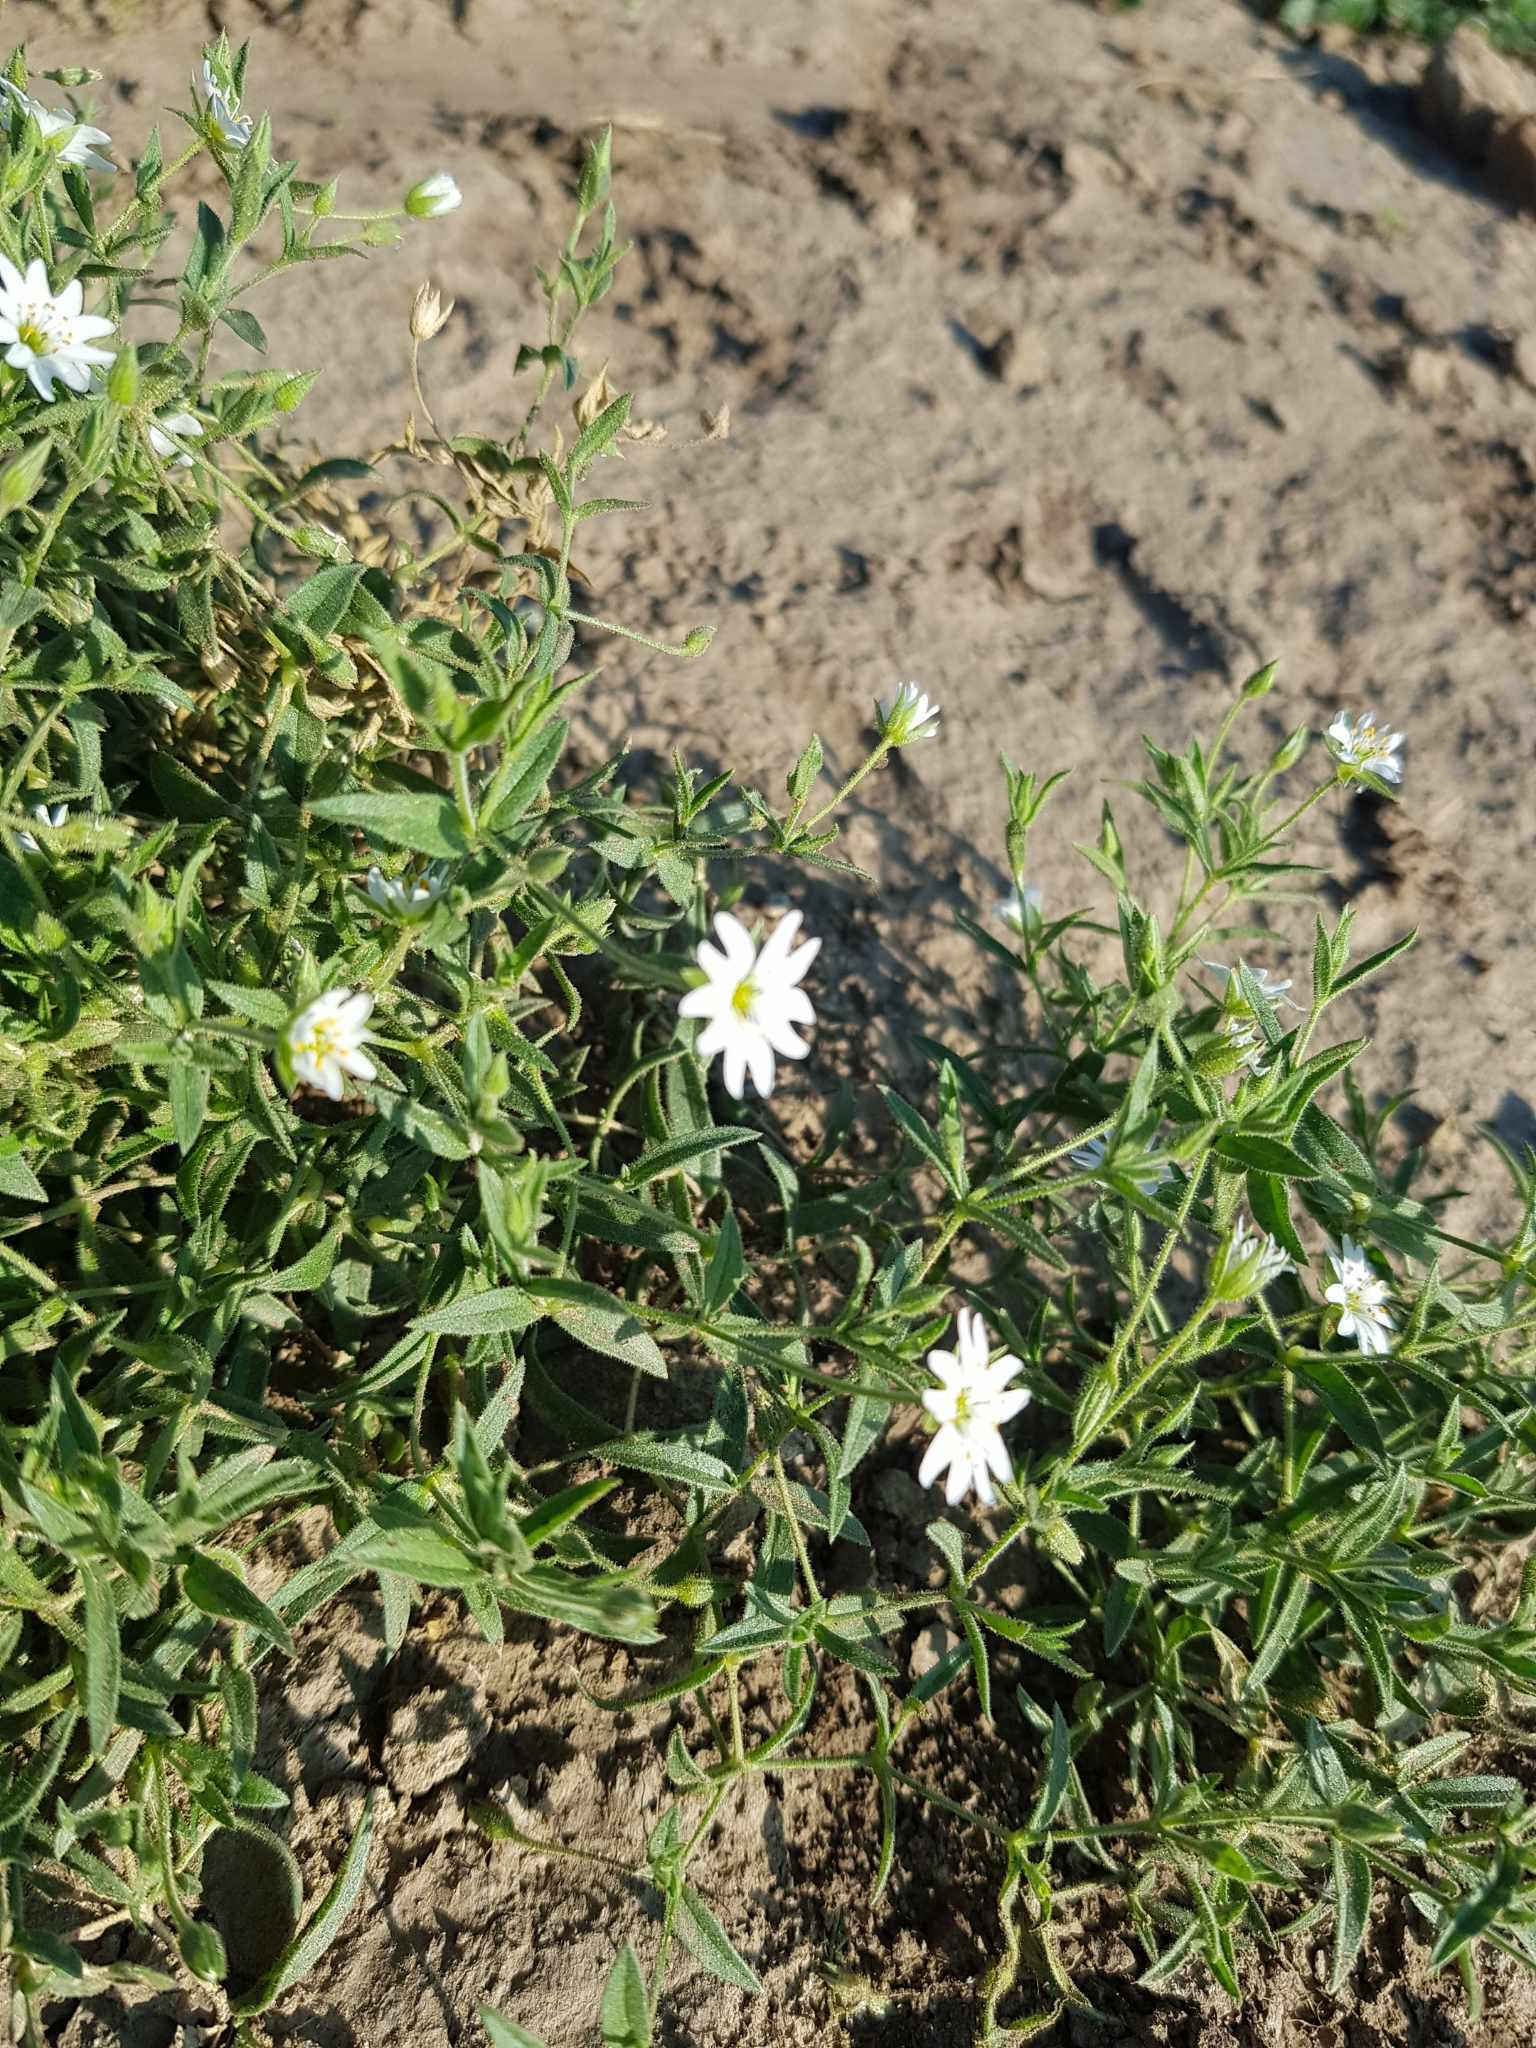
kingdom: Plantae
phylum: Tracheophyta
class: Magnoliopsida
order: Caryophyllales
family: Caryophyllaceae
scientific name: Caryophyllaceae
